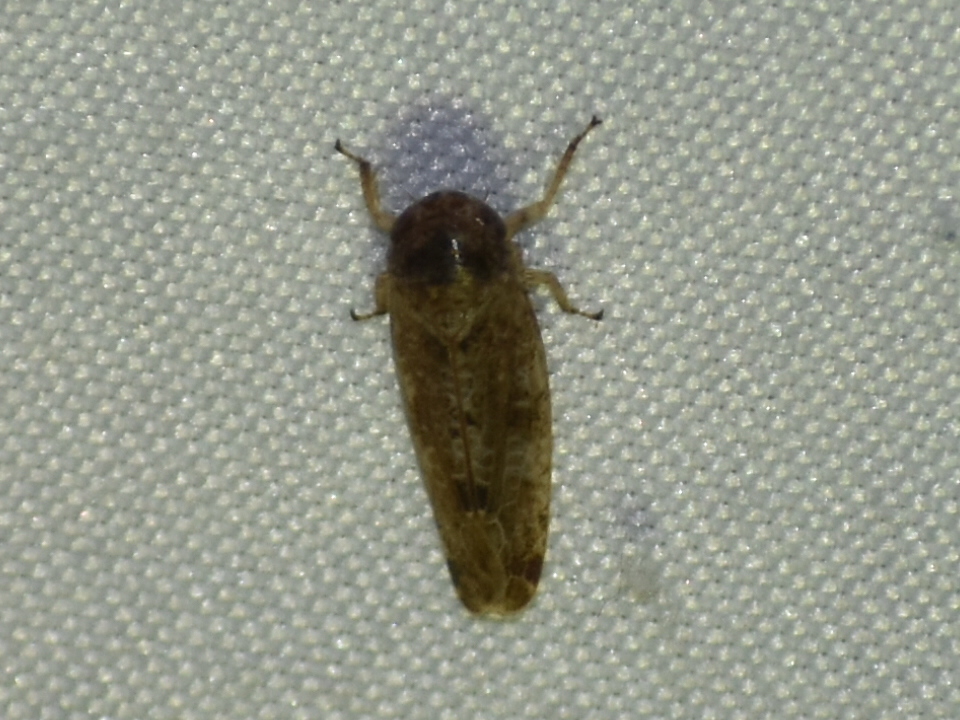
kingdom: Animalia
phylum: Arthropoda
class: Insecta
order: Hemiptera
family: Cicadellidae
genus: Allygidius
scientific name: Allygidius atomarius
